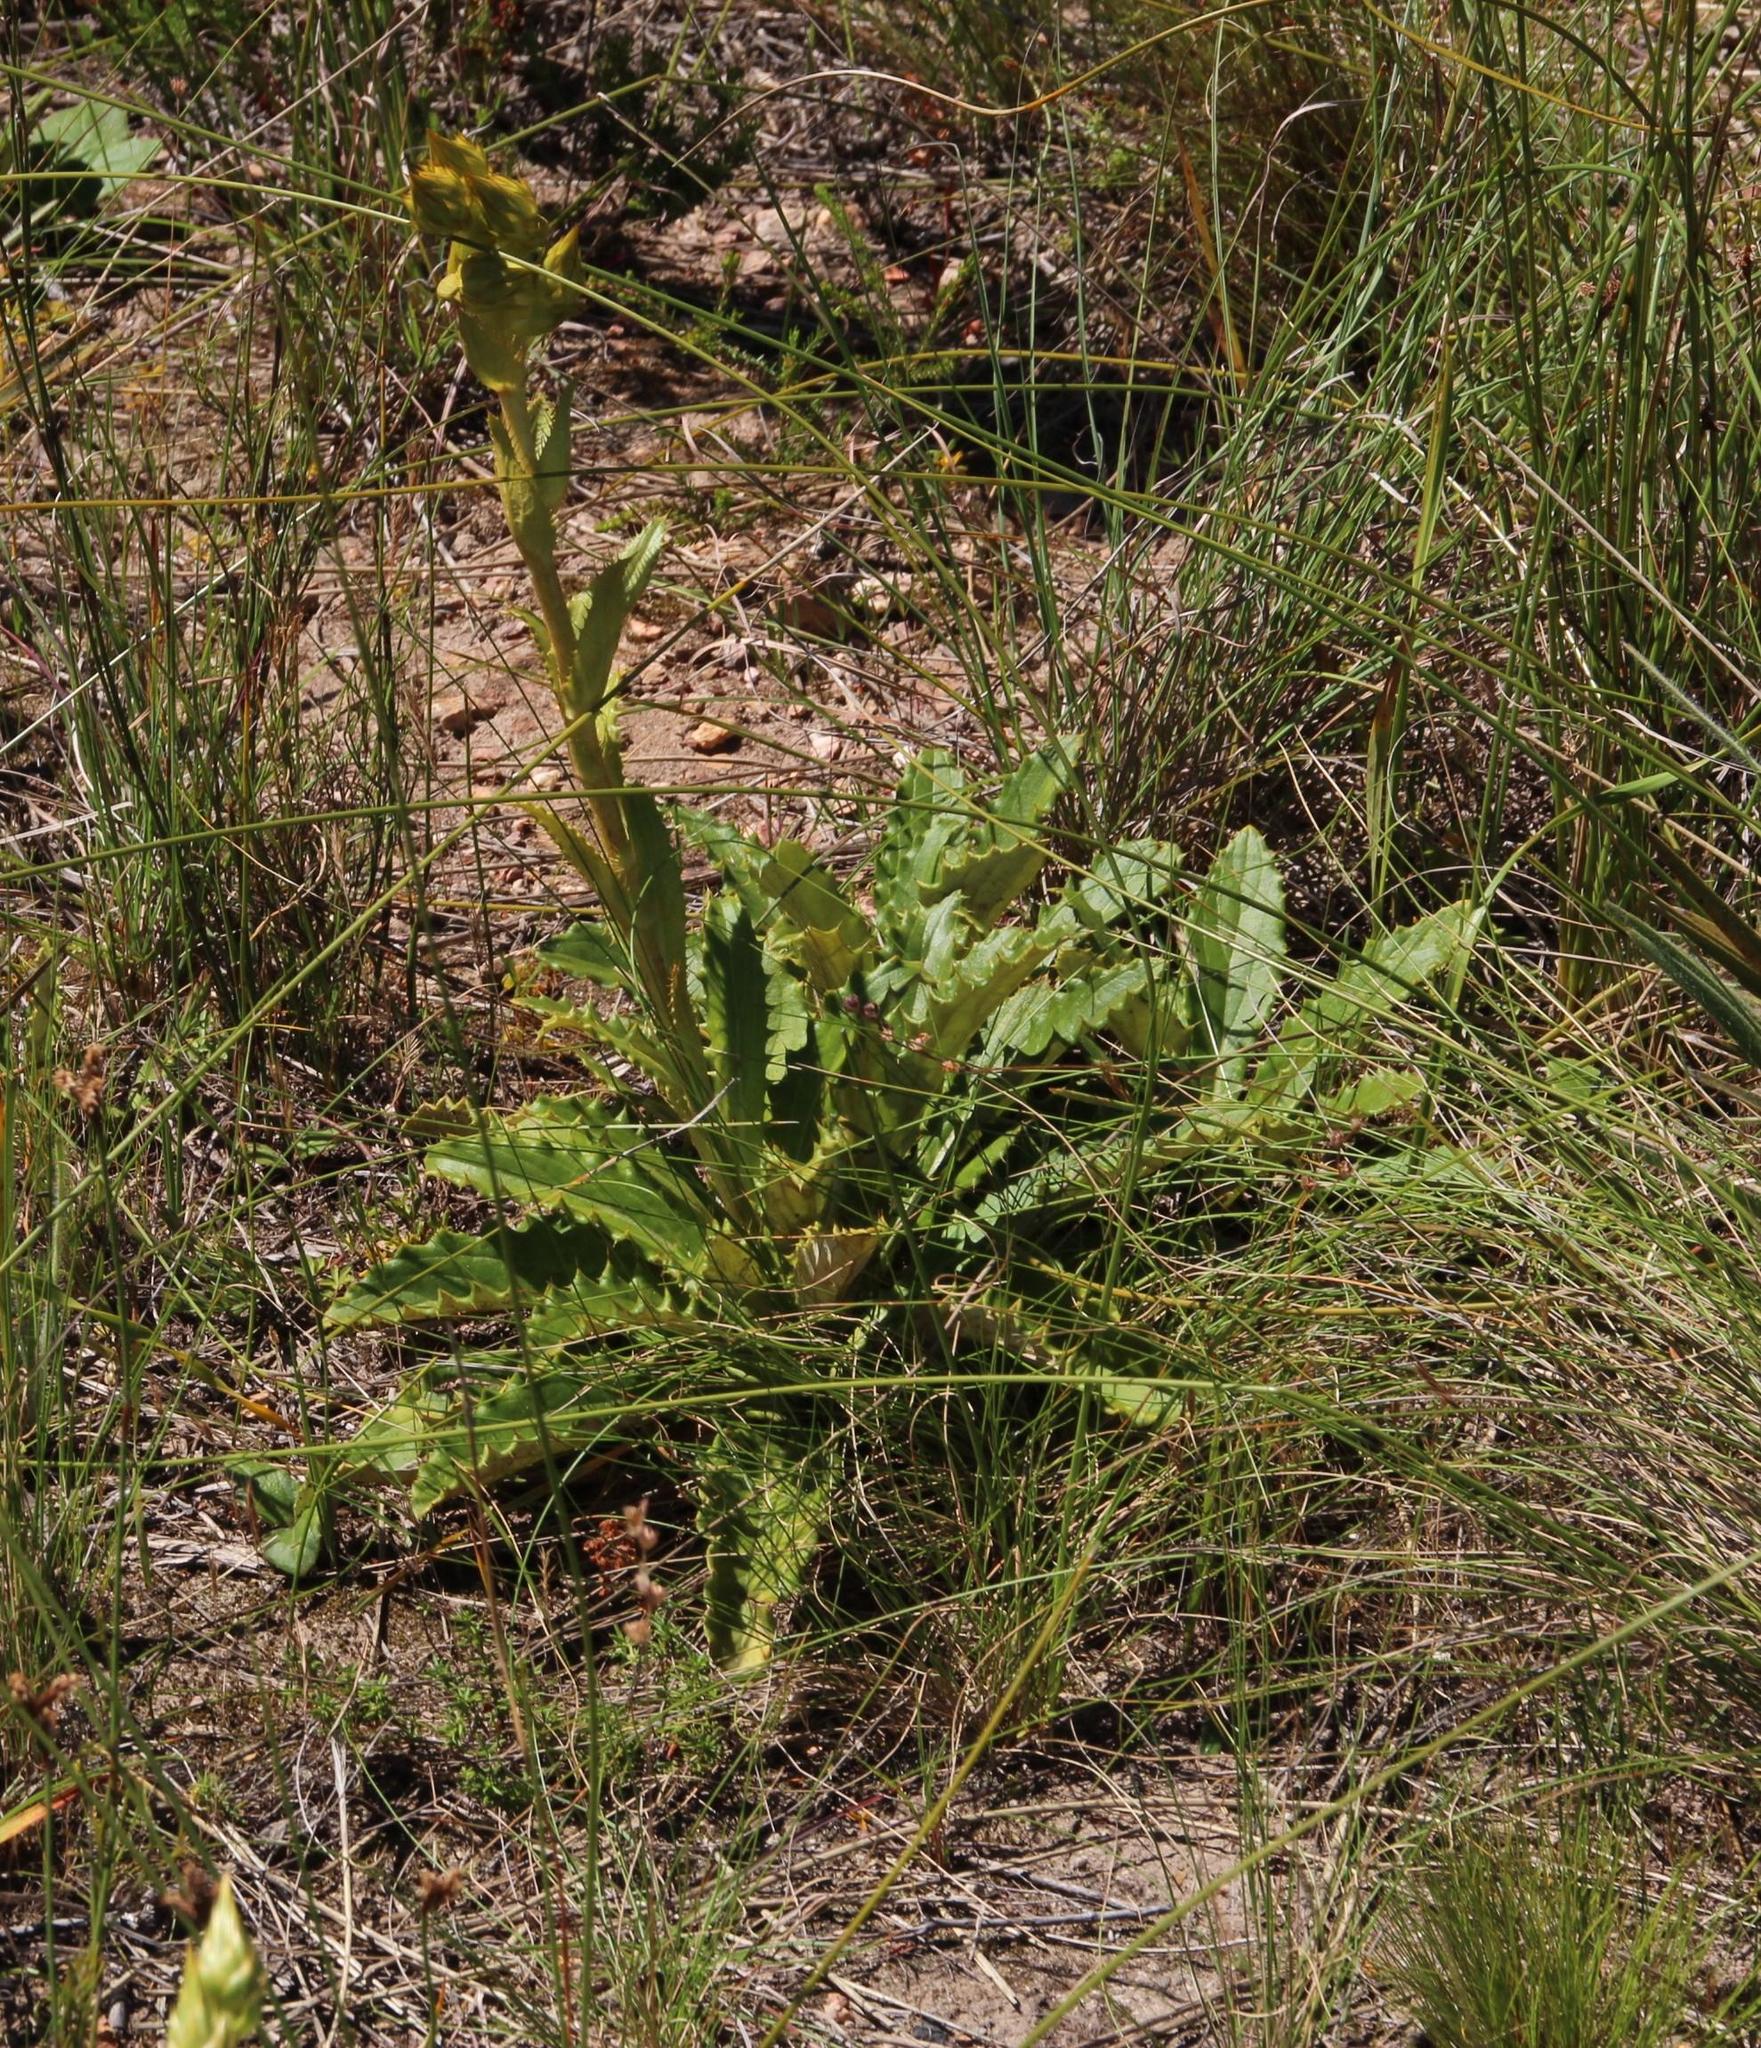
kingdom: Plantae
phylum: Tracheophyta
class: Magnoliopsida
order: Asterales
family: Asteraceae
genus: Berkheya
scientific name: Berkheya herbacea
